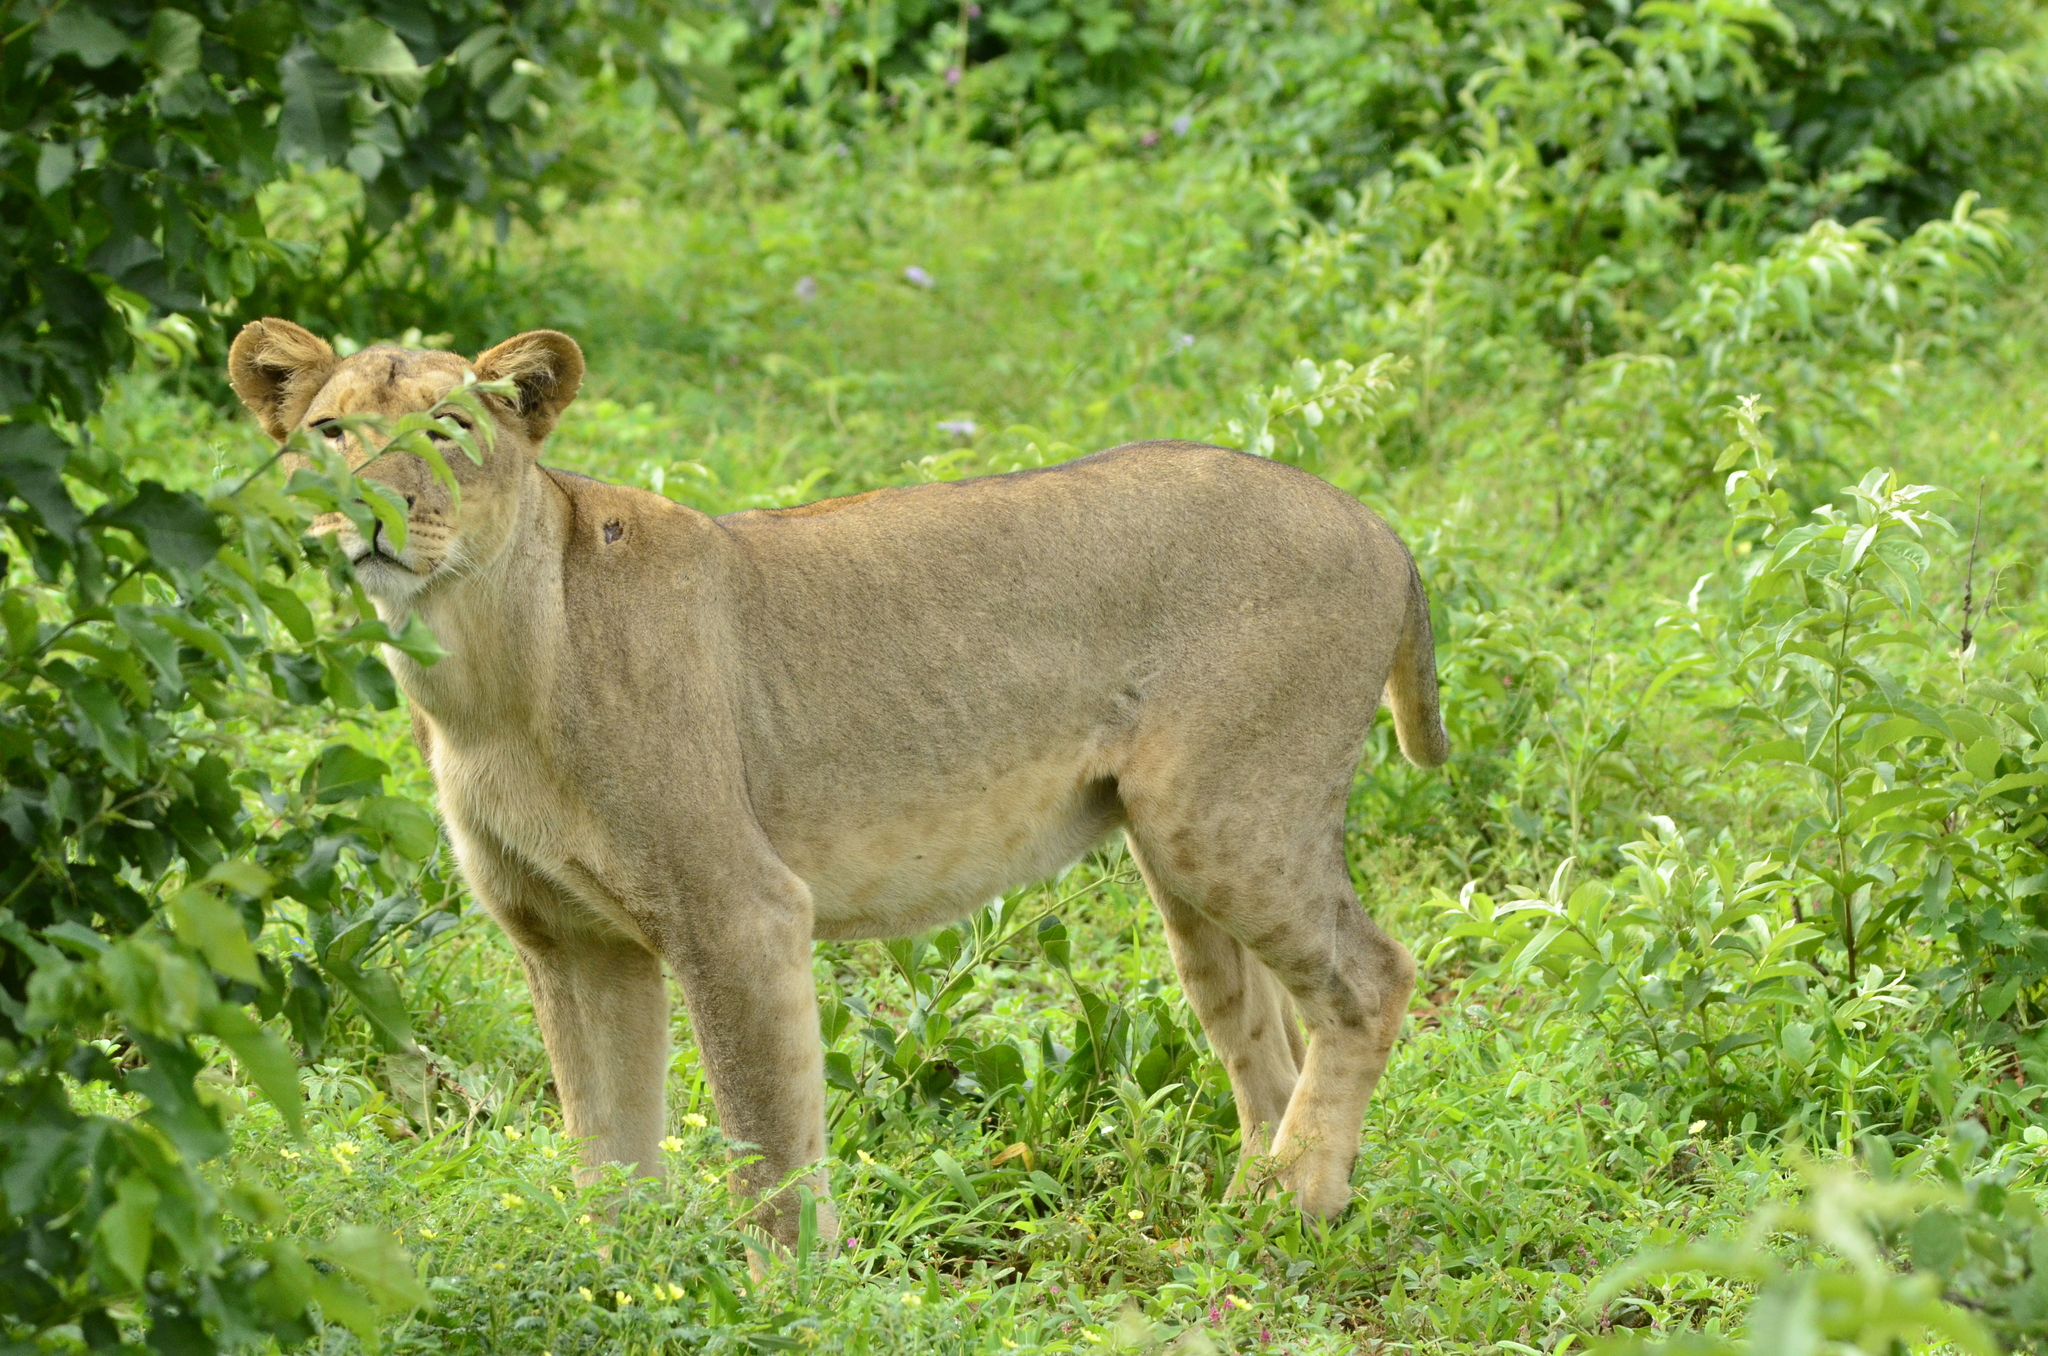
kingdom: Animalia
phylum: Chordata
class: Mammalia
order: Carnivora
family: Felidae
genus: Panthera
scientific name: Panthera leo
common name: Lion
